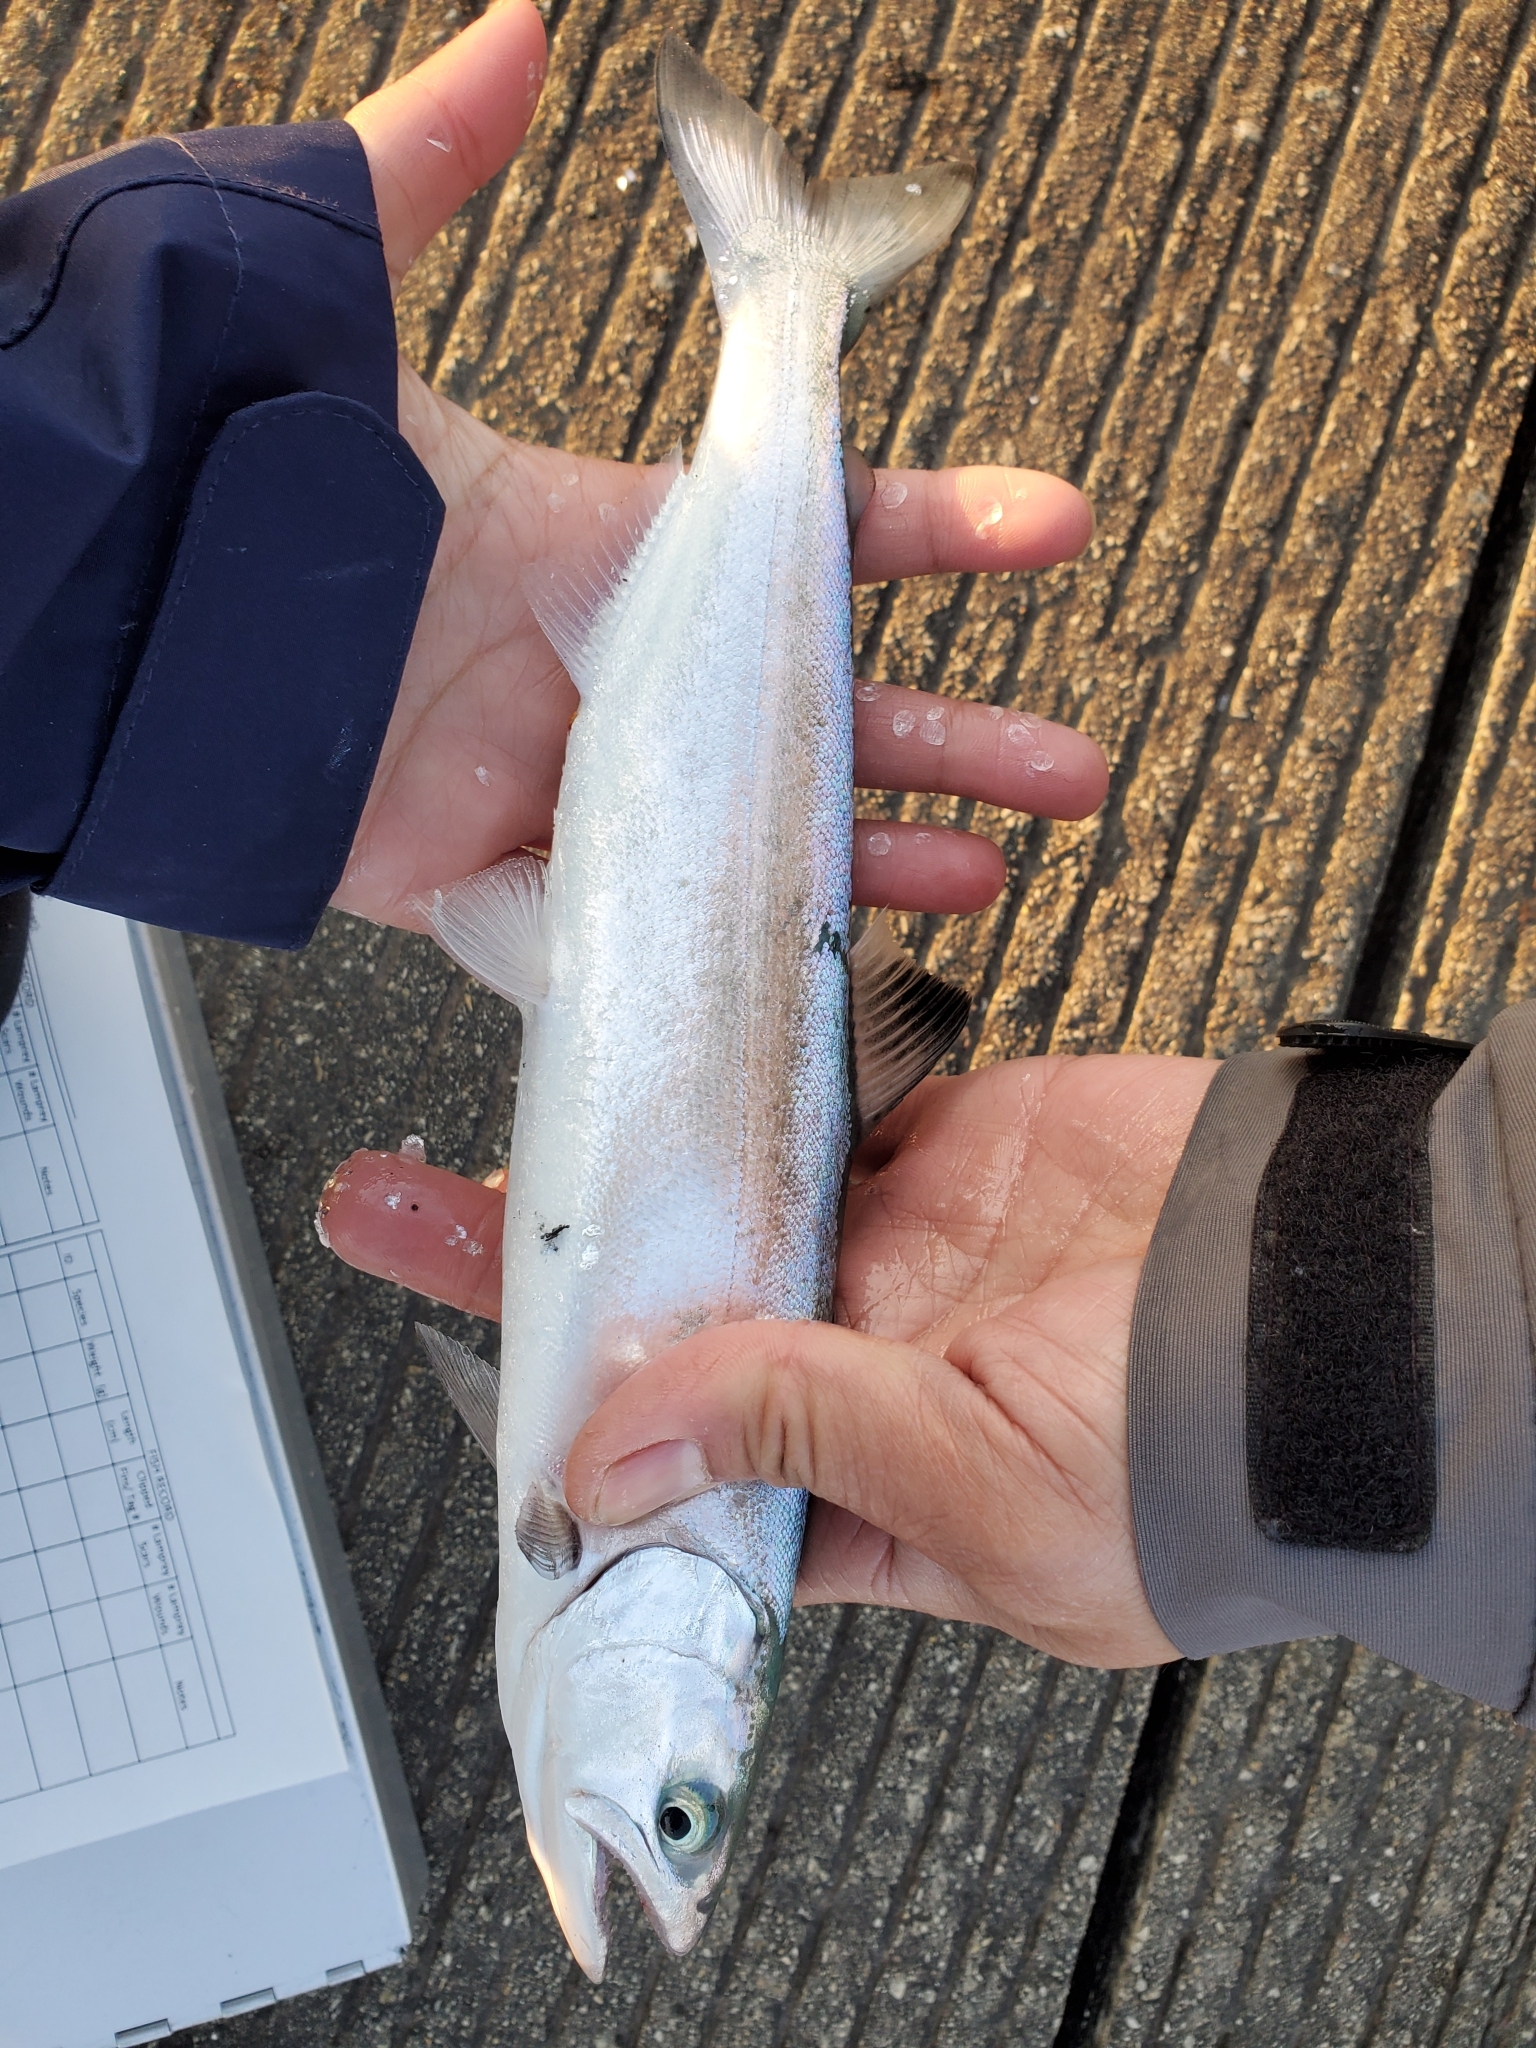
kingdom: Animalia
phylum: Chordata
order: Salmoniformes
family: Salmonidae
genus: Oncorhynchus
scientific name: Oncorhynchus kisutch
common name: Coho salmon
